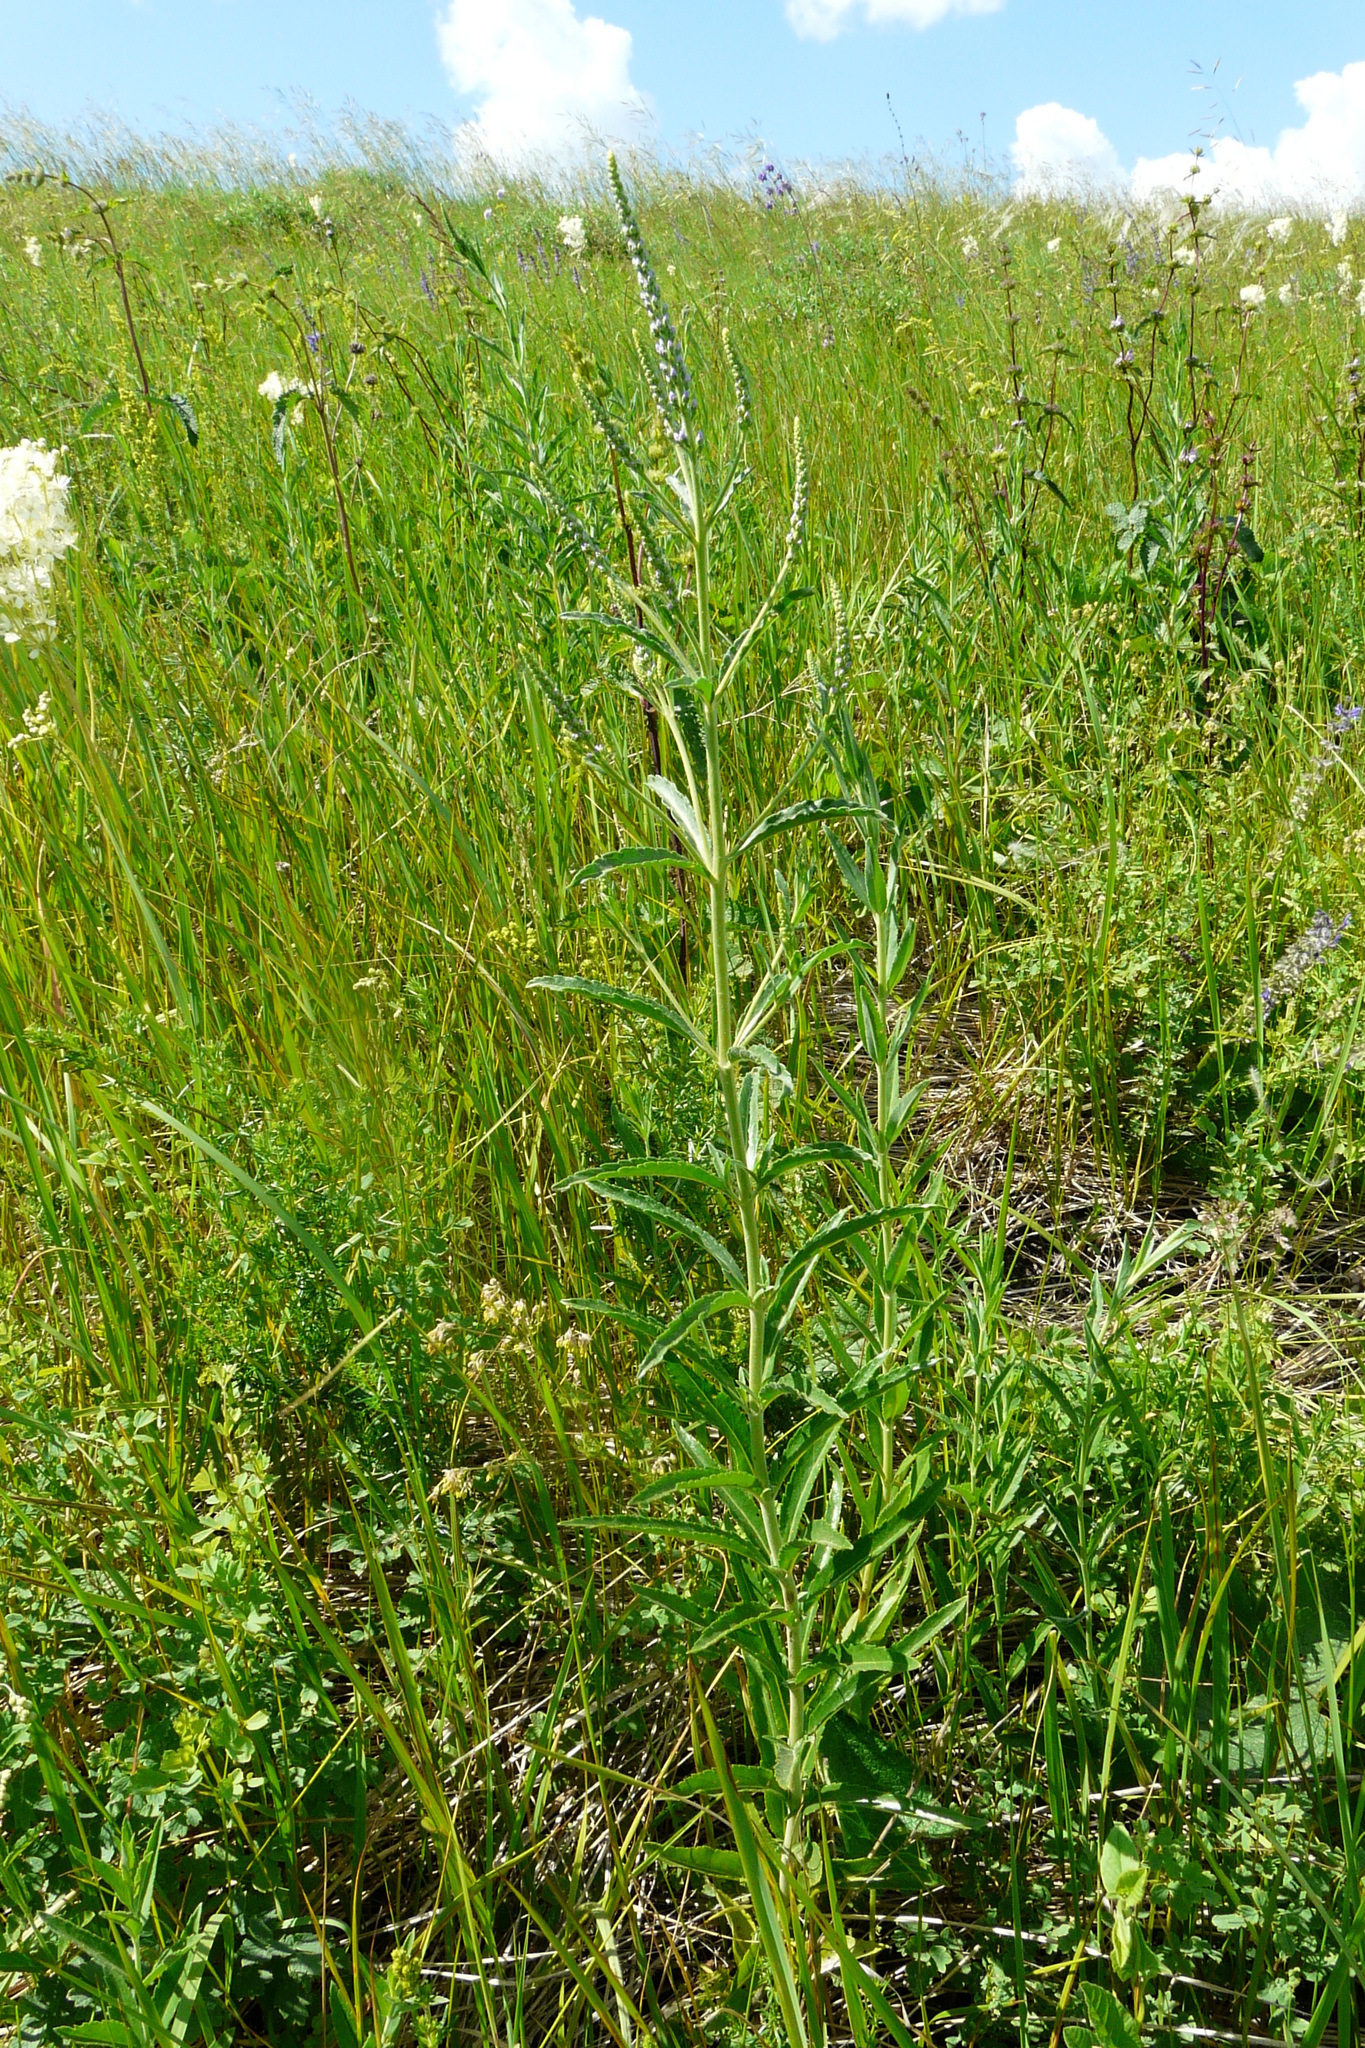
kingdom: Plantae
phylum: Tracheophyta
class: Magnoliopsida
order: Lamiales
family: Plantaginaceae
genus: Veronica
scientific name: Veronica spuria
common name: Bastard speedwell
